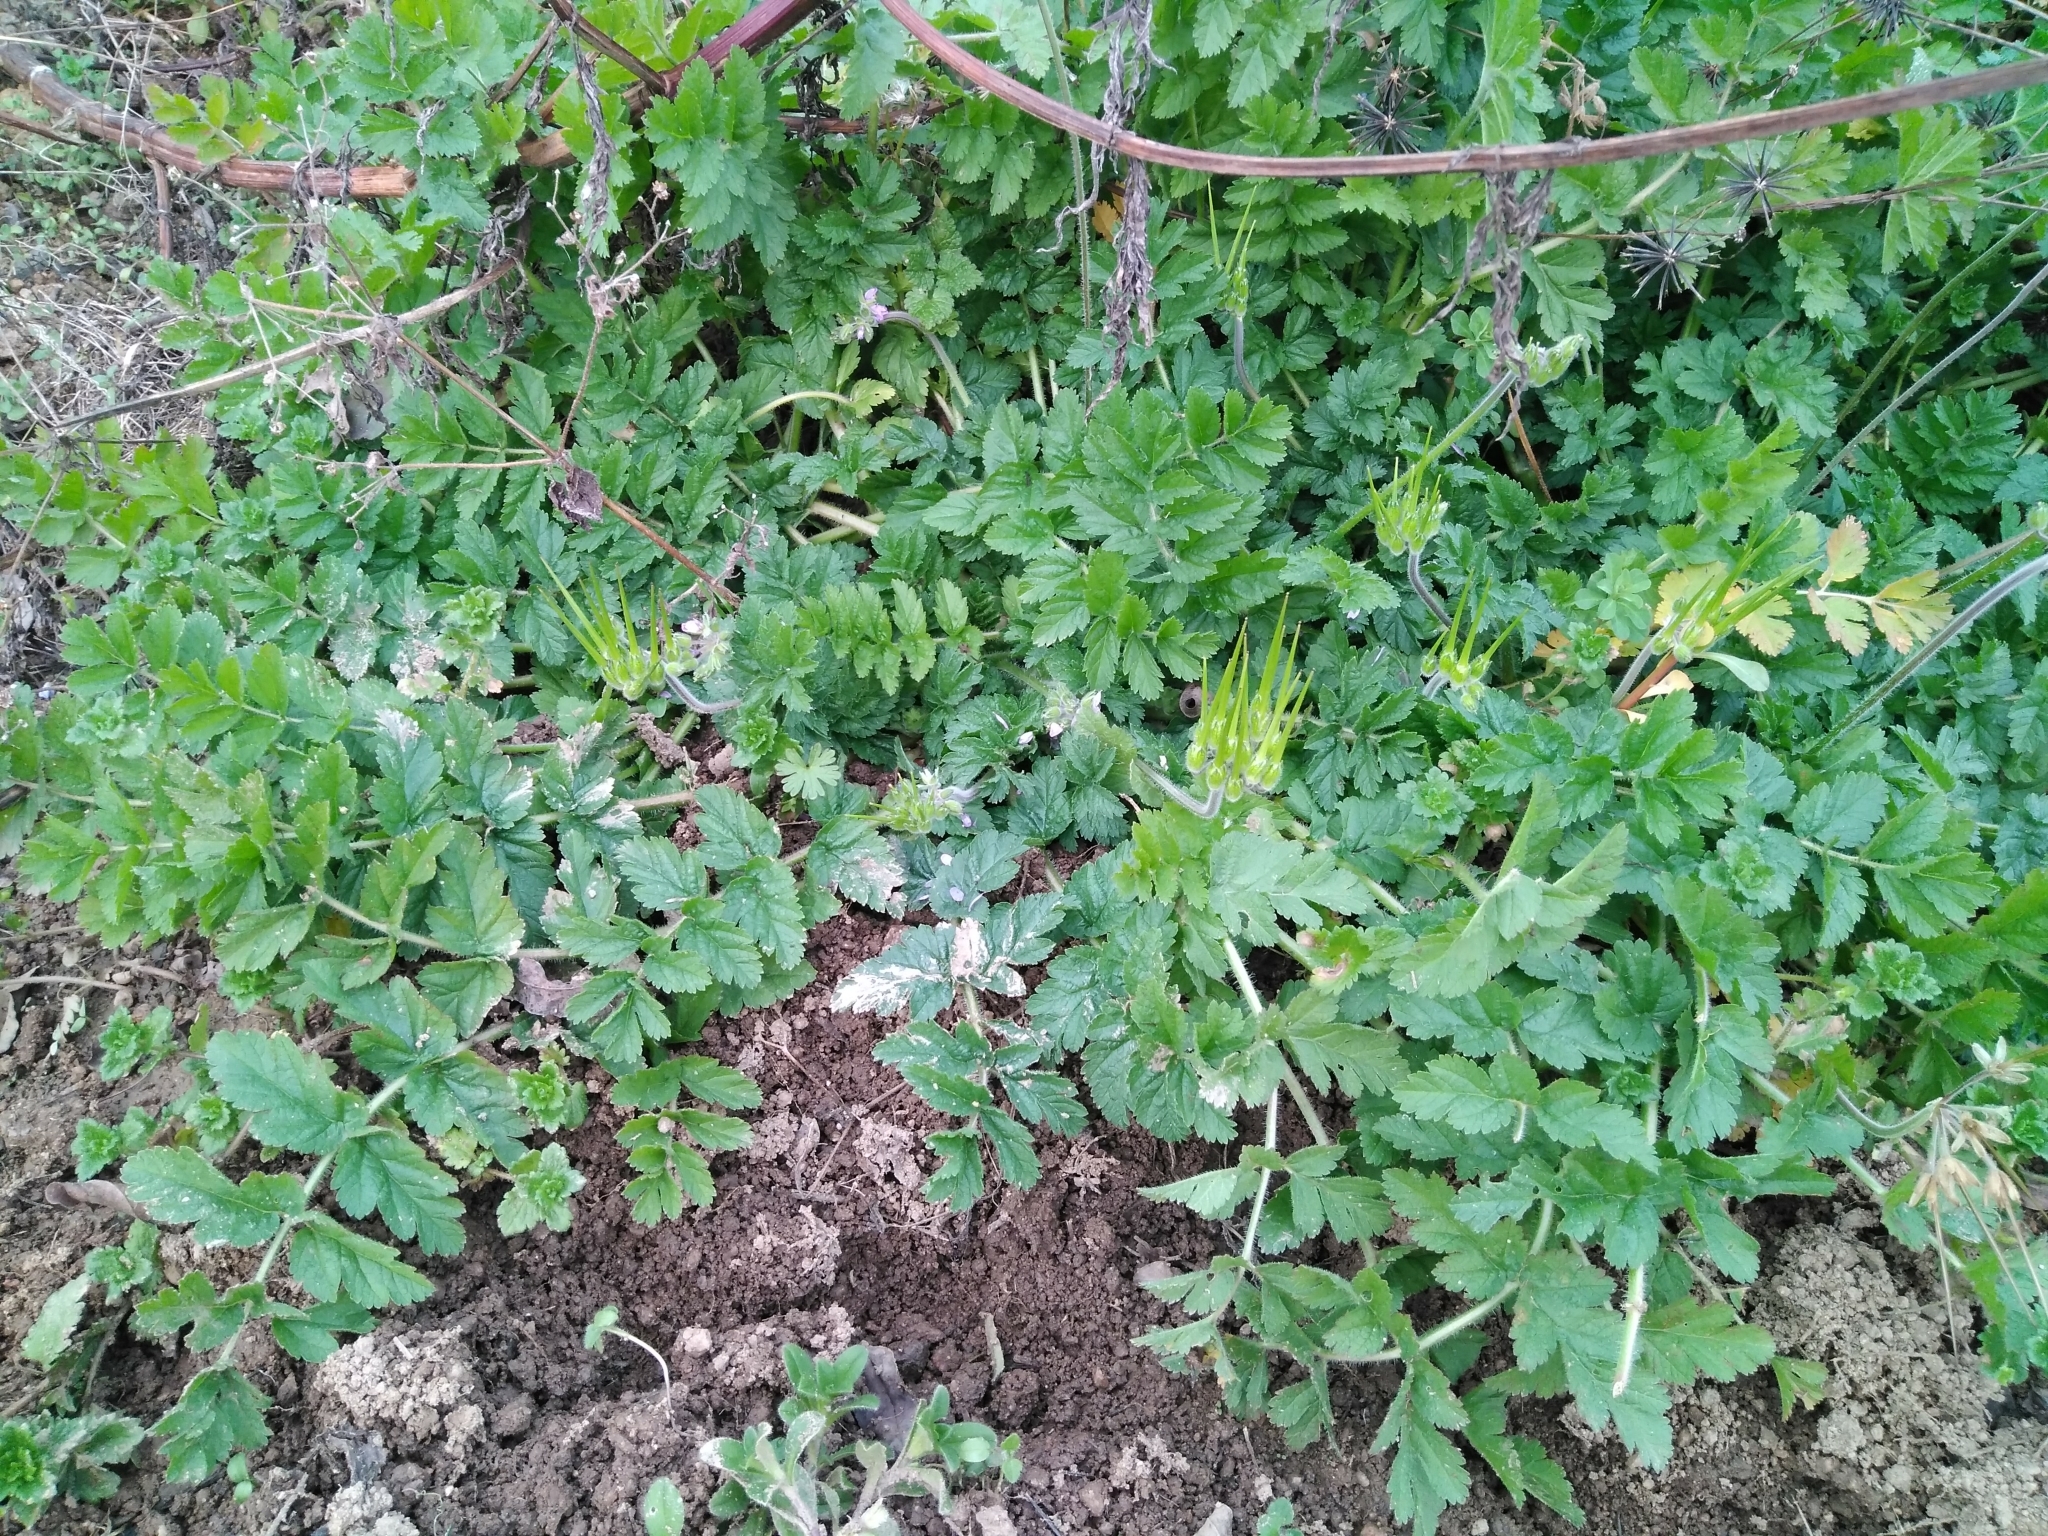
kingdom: Plantae
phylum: Tracheophyta
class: Magnoliopsida
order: Geraniales
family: Geraniaceae
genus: Erodium
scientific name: Erodium moschatum
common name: Musk stork's-bill
